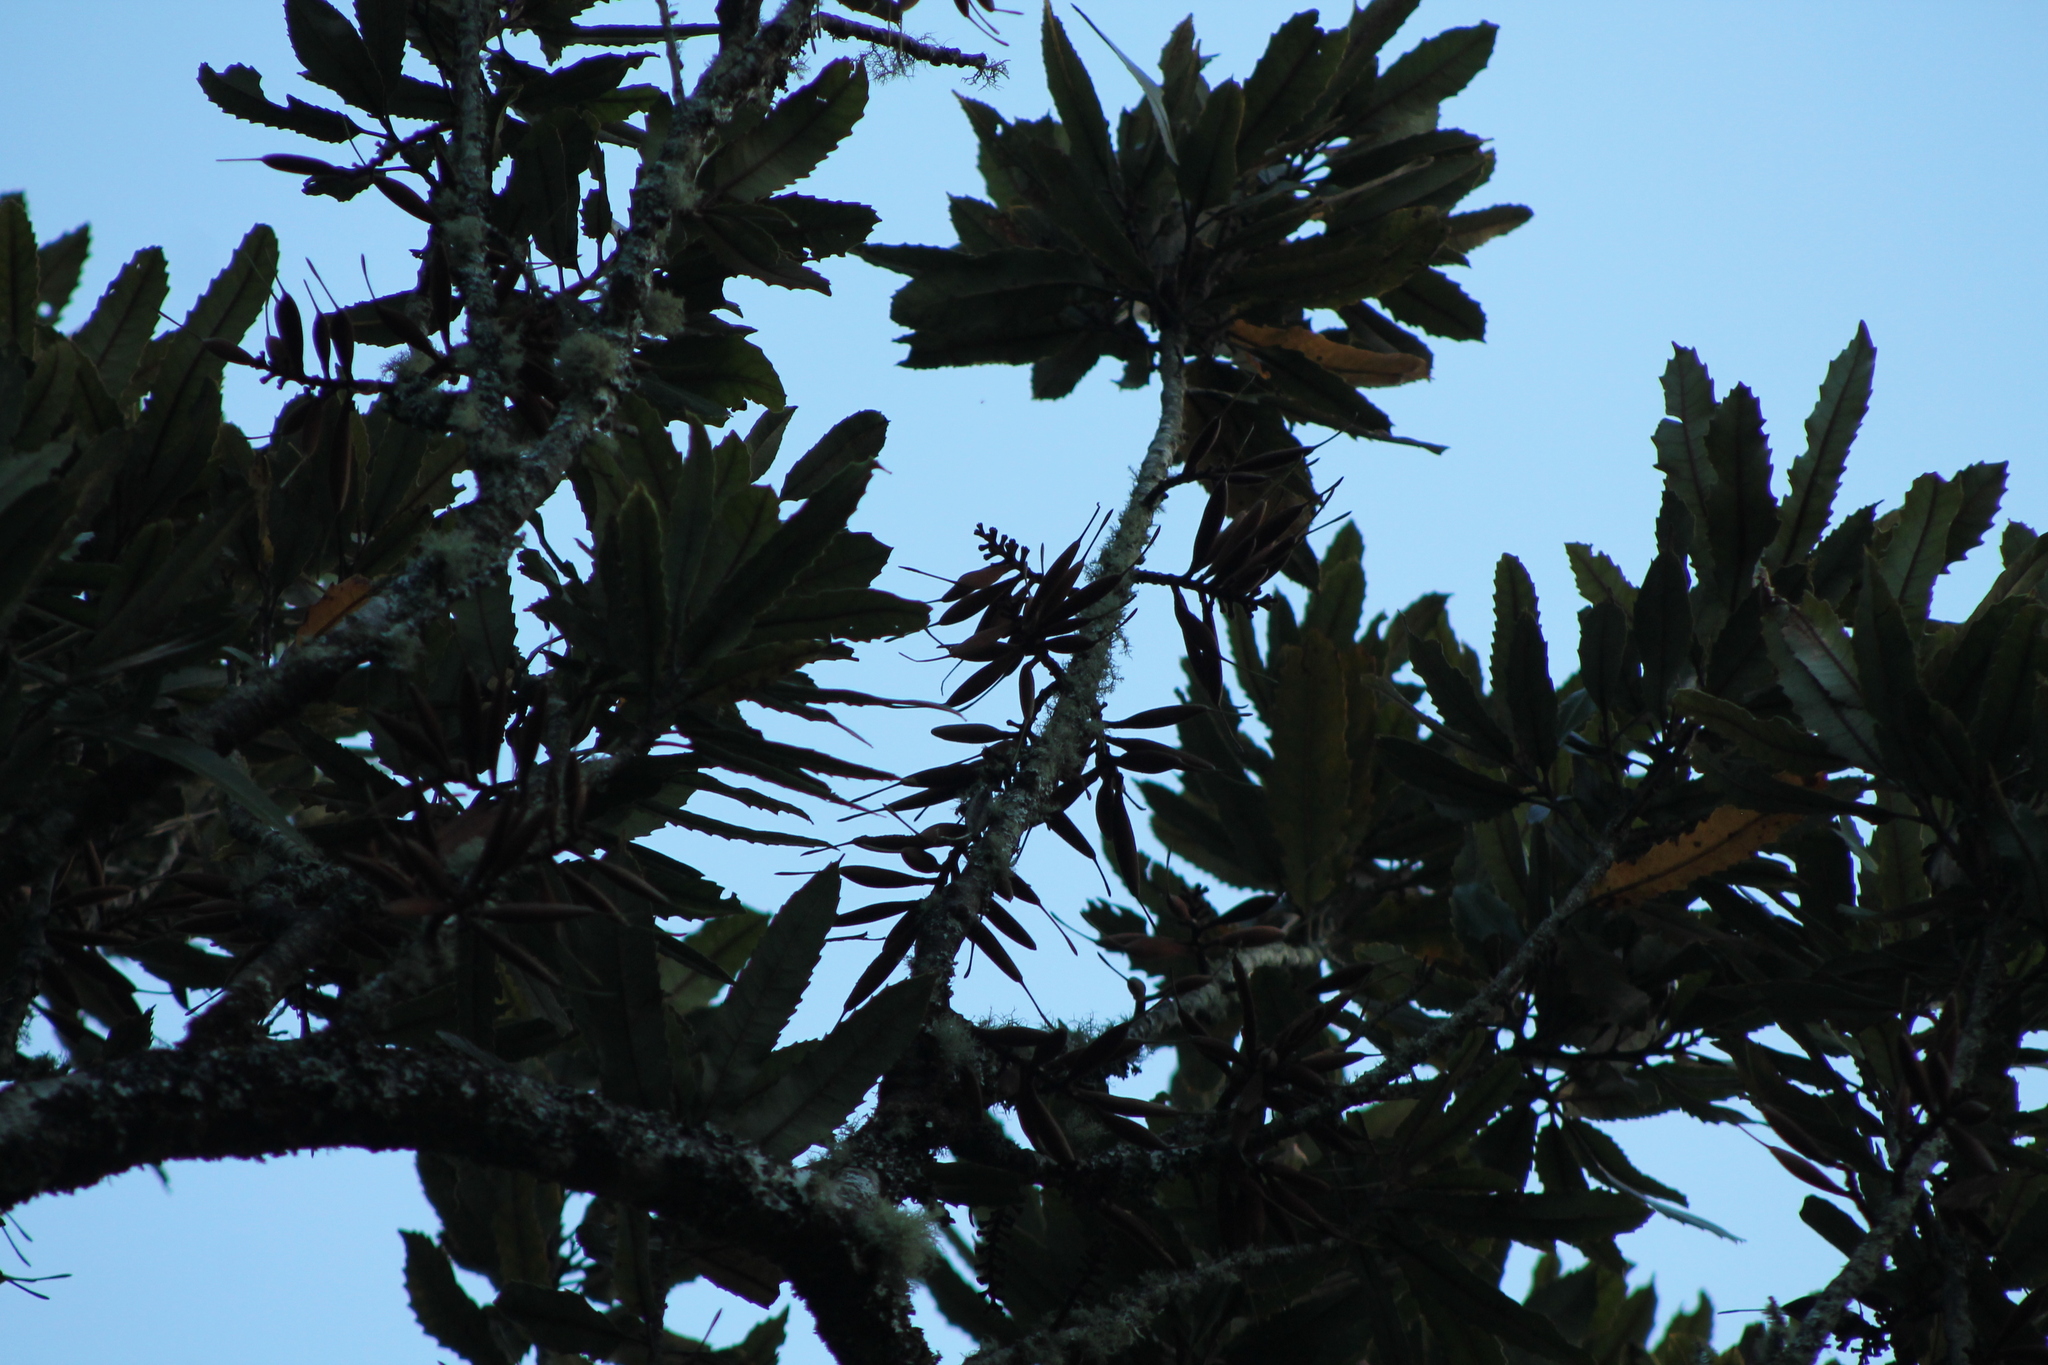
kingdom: Plantae
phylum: Tracheophyta
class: Magnoliopsida
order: Proteales
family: Proteaceae
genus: Knightia
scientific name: Knightia excelsa
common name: New zealand-honeysuckle
